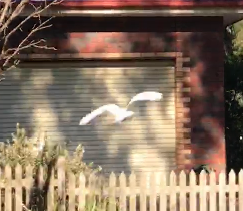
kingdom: Animalia
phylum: Chordata
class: Aves
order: Psittaciformes
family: Psittacidae
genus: Cacatua
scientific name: Cacatua tenuirostris
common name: Long-billed corella
